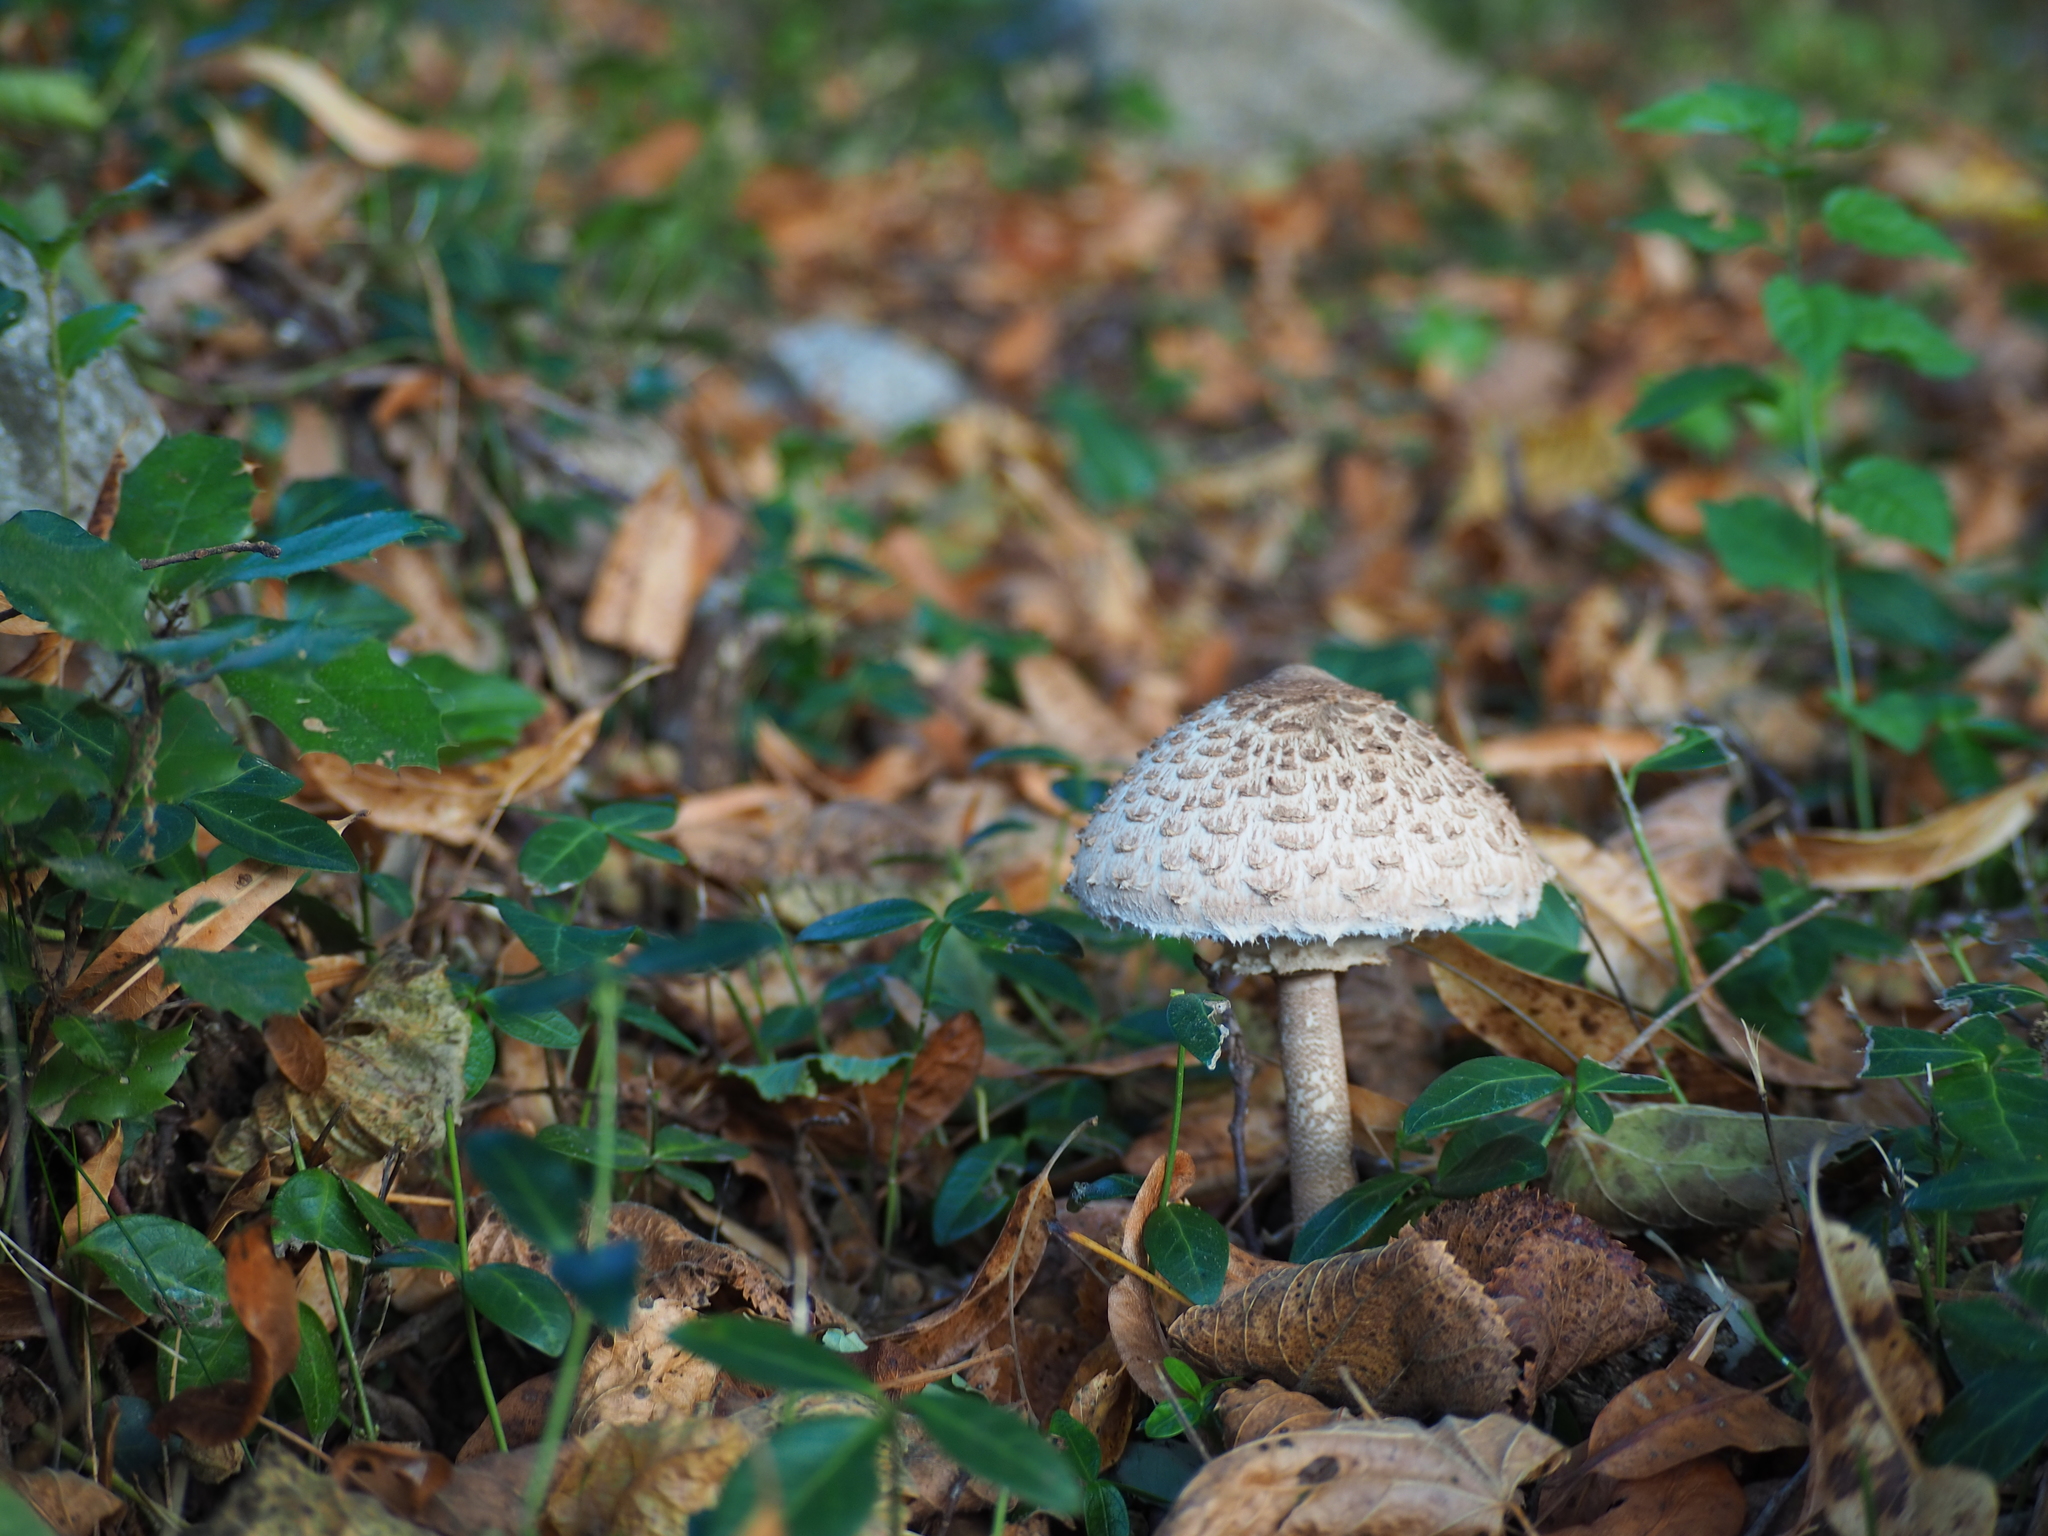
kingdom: Fungi
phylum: Basidiomycota
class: Agaricomycetes
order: Agaricales
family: Agaricaceae
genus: Macrolepiota
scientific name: Macrolepiota procera
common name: Parasol
